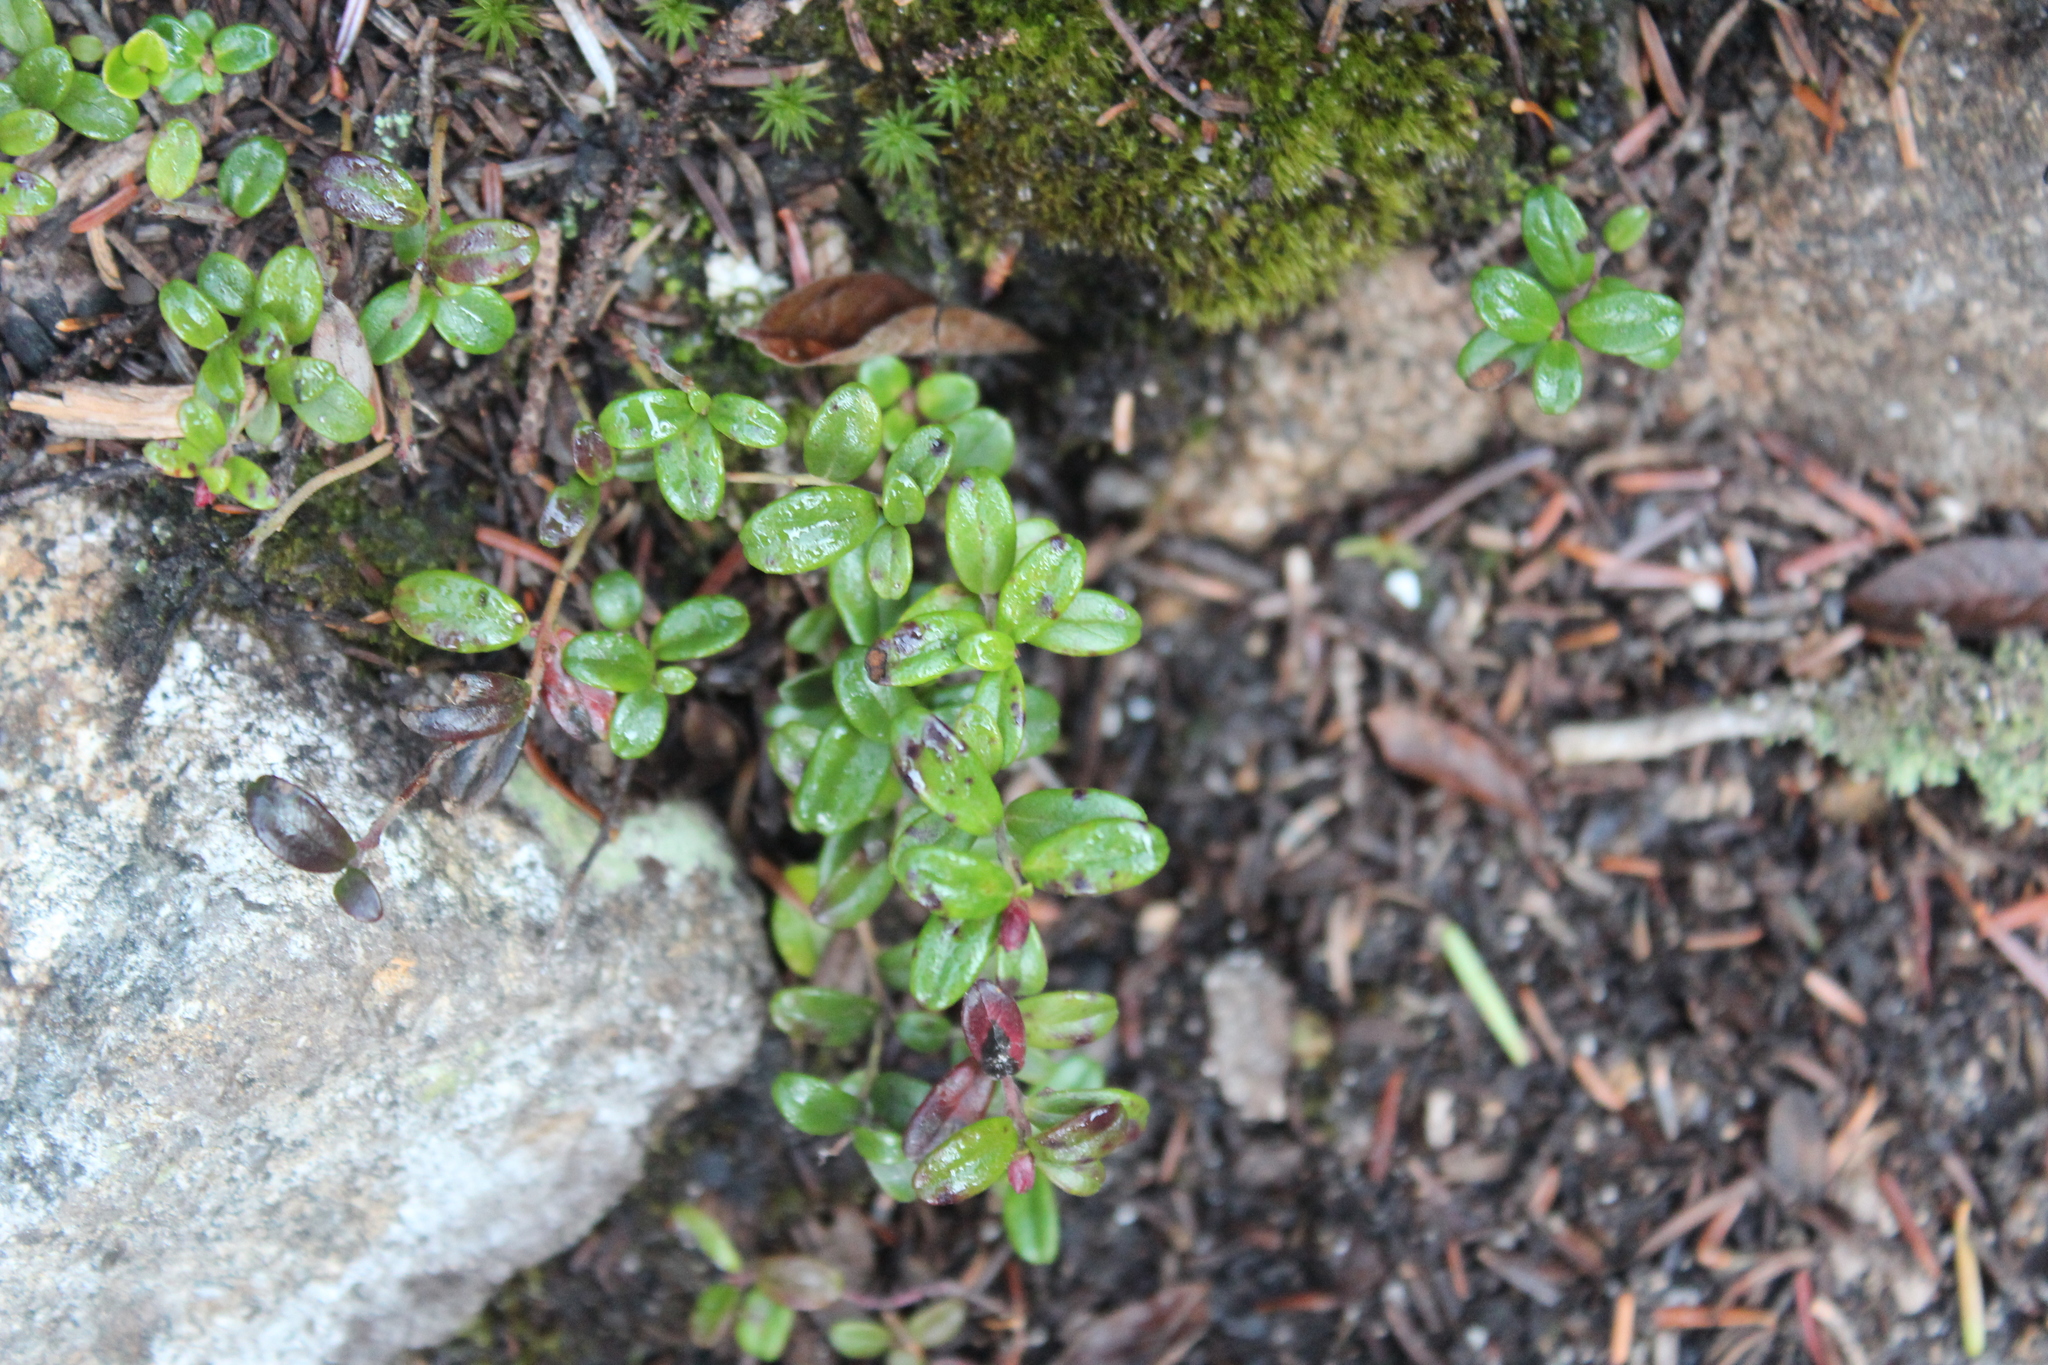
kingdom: Plantae
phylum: Tracheophyta
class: Magnoliopsida
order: Ericales
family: Ericaceae
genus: Vaccinium
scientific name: Vaccinium vitis-idaea
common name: Cowberry
